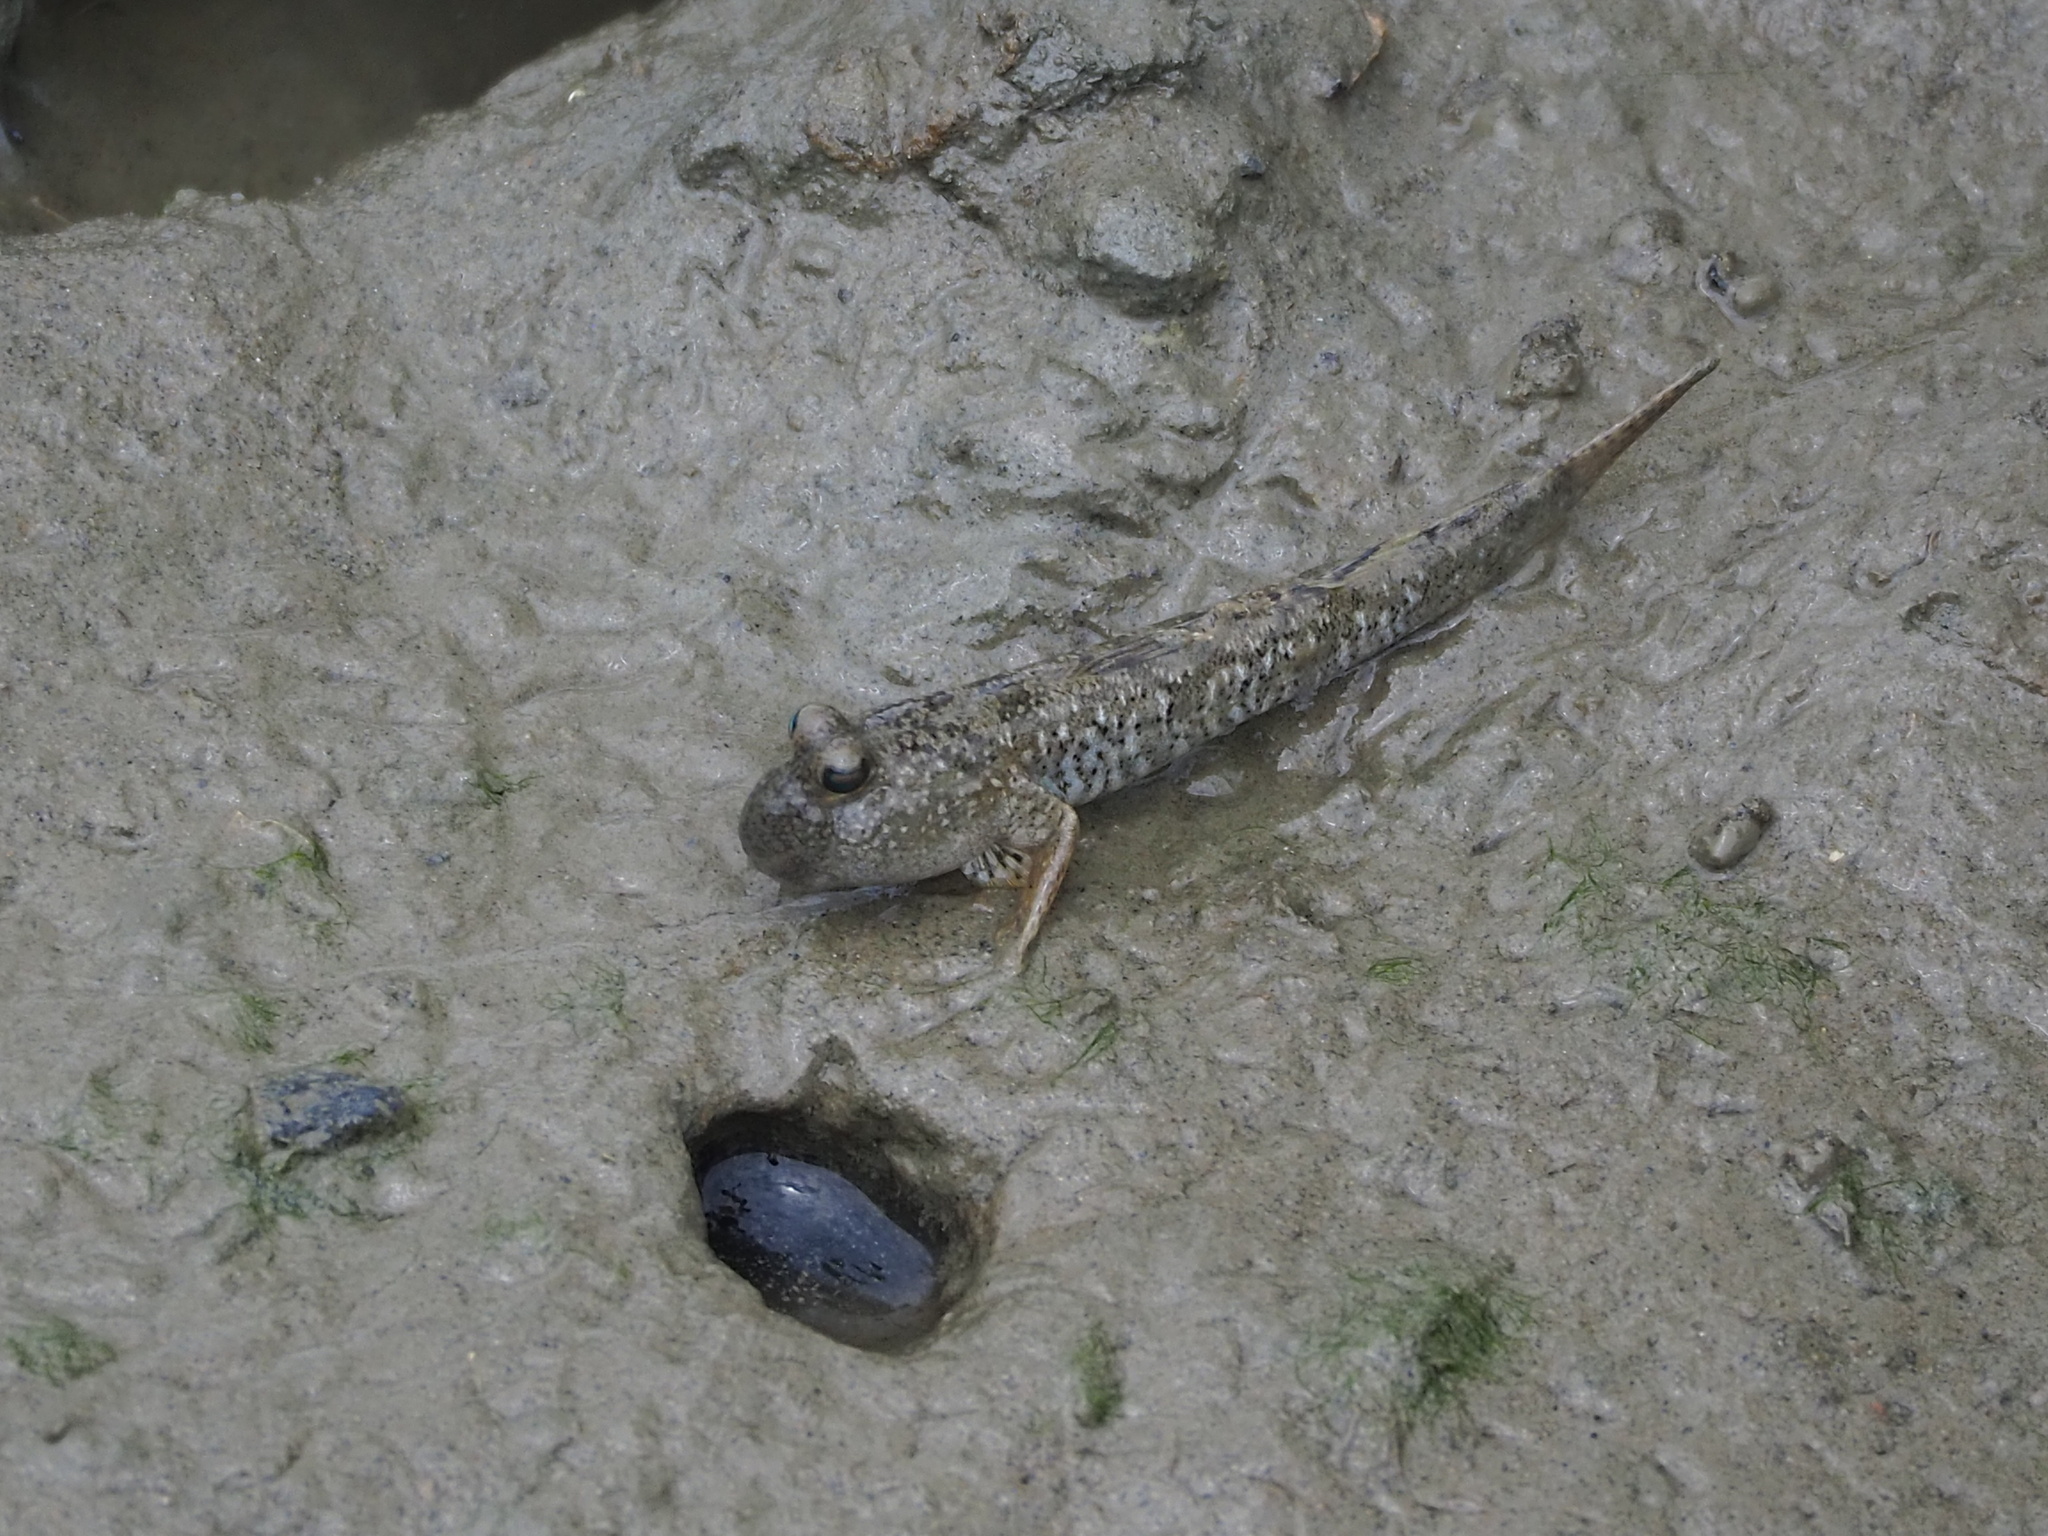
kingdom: Animalia
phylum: Chordata
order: Perciformes
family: Gobiidae
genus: Periophthalmus
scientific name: Periophthalmus modestus
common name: Black goby
